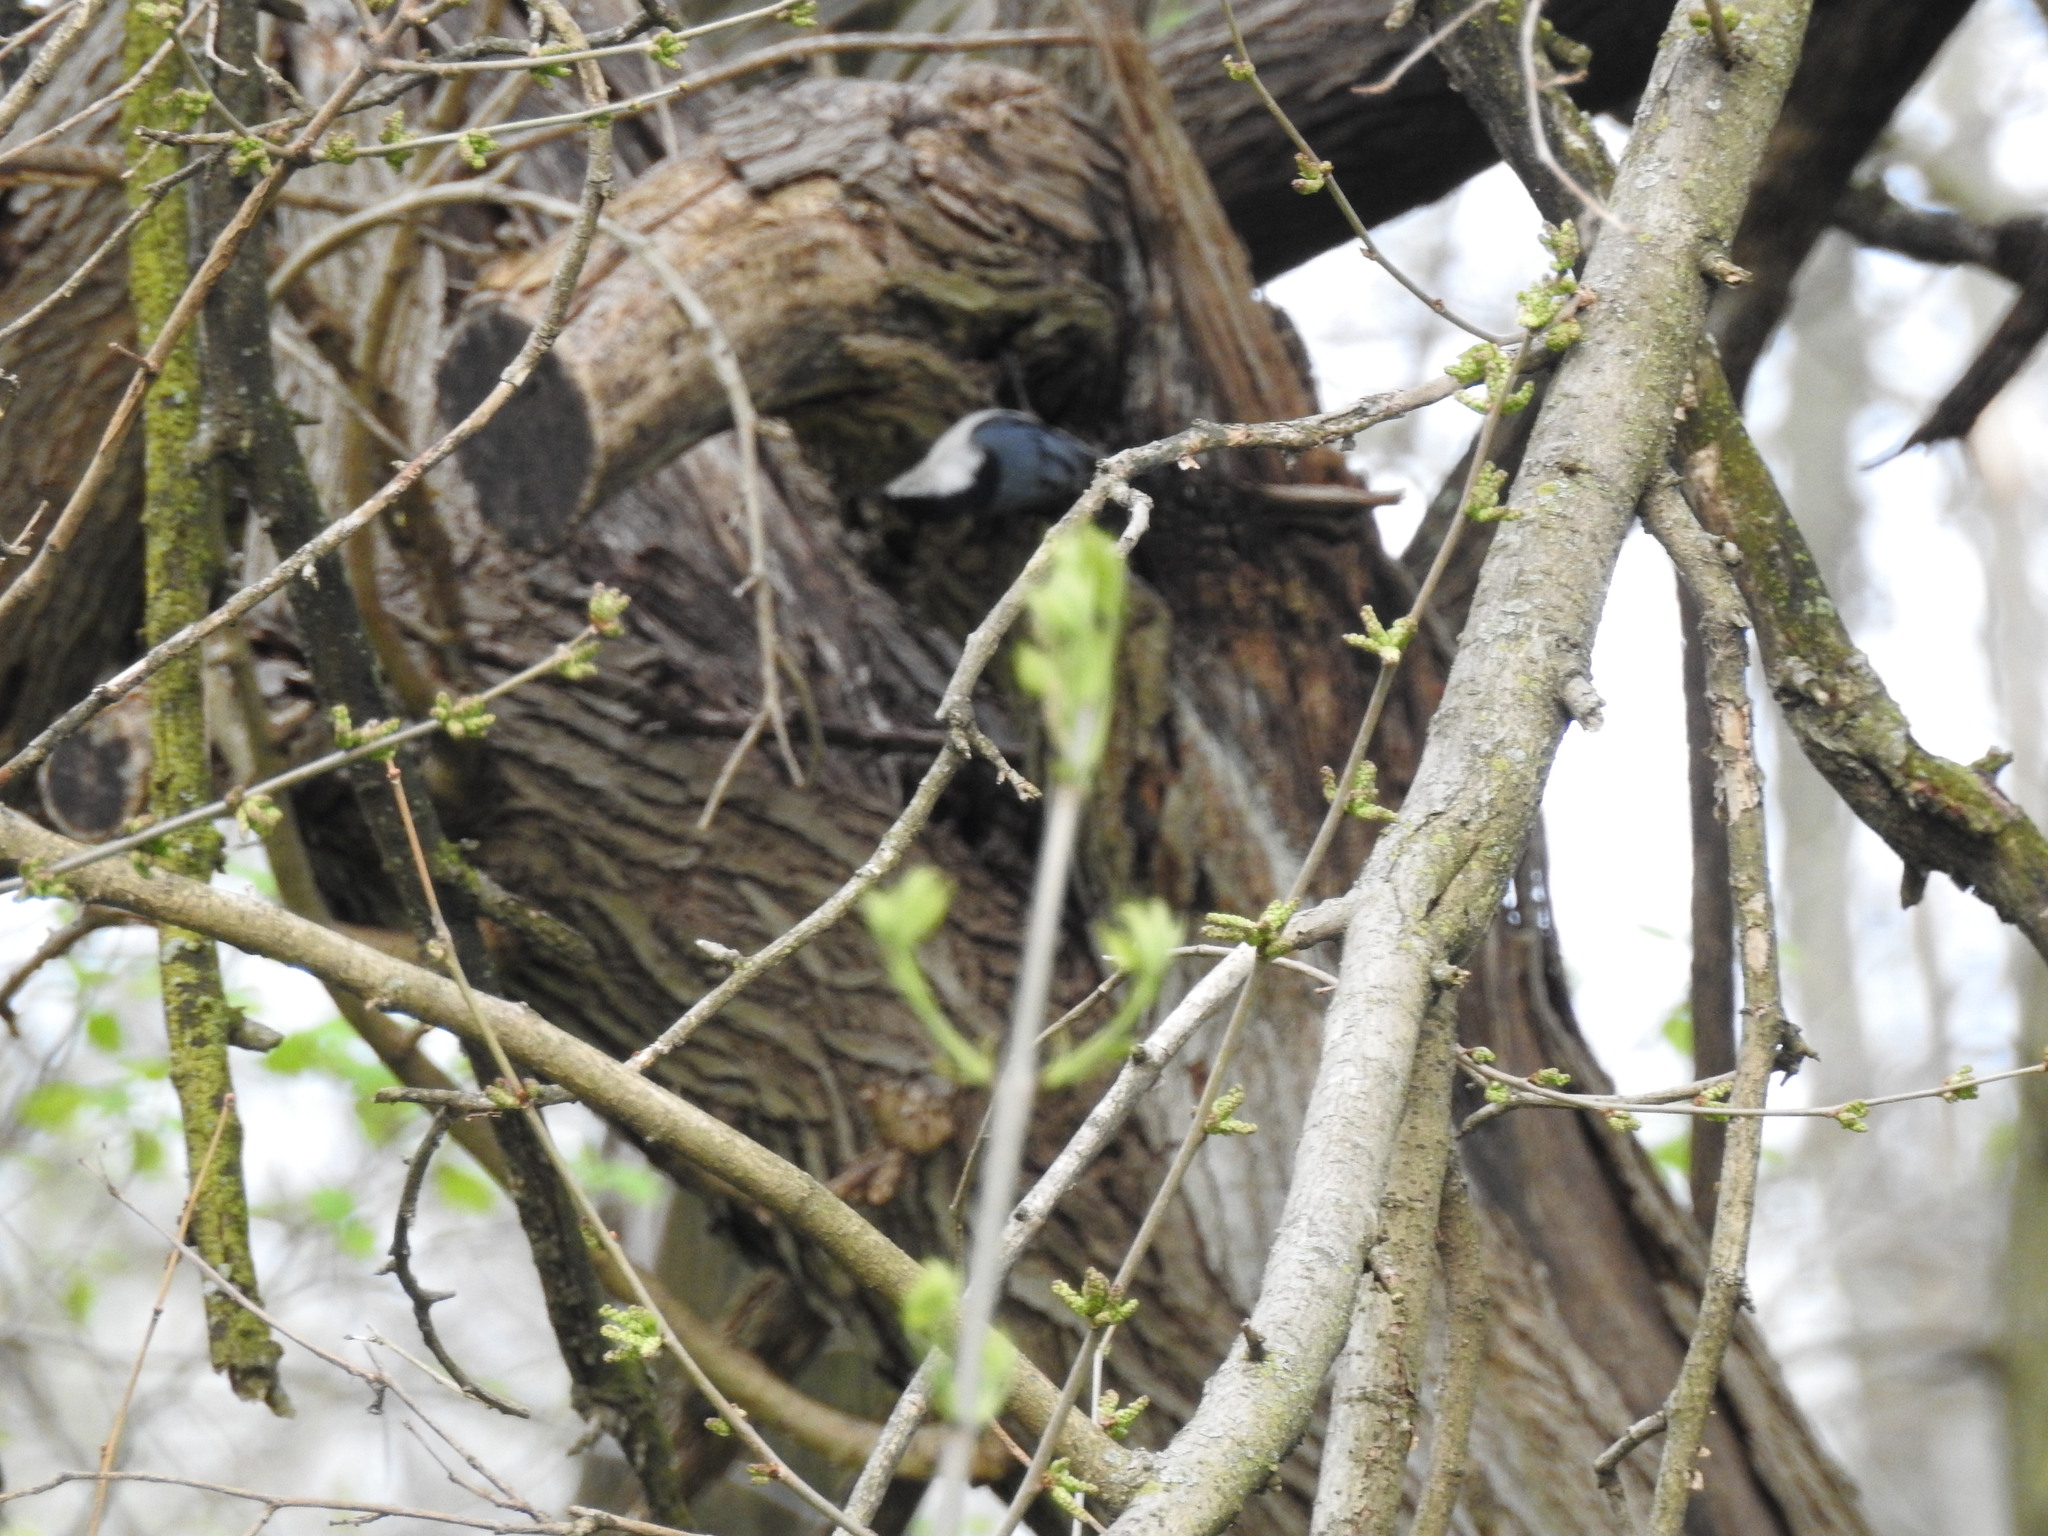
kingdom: Animalia
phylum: Chordata
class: Aves
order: Passeriformes
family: Sittidae
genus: Sitta
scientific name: Sitta carolinensis
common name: White-breasted nuthatch
